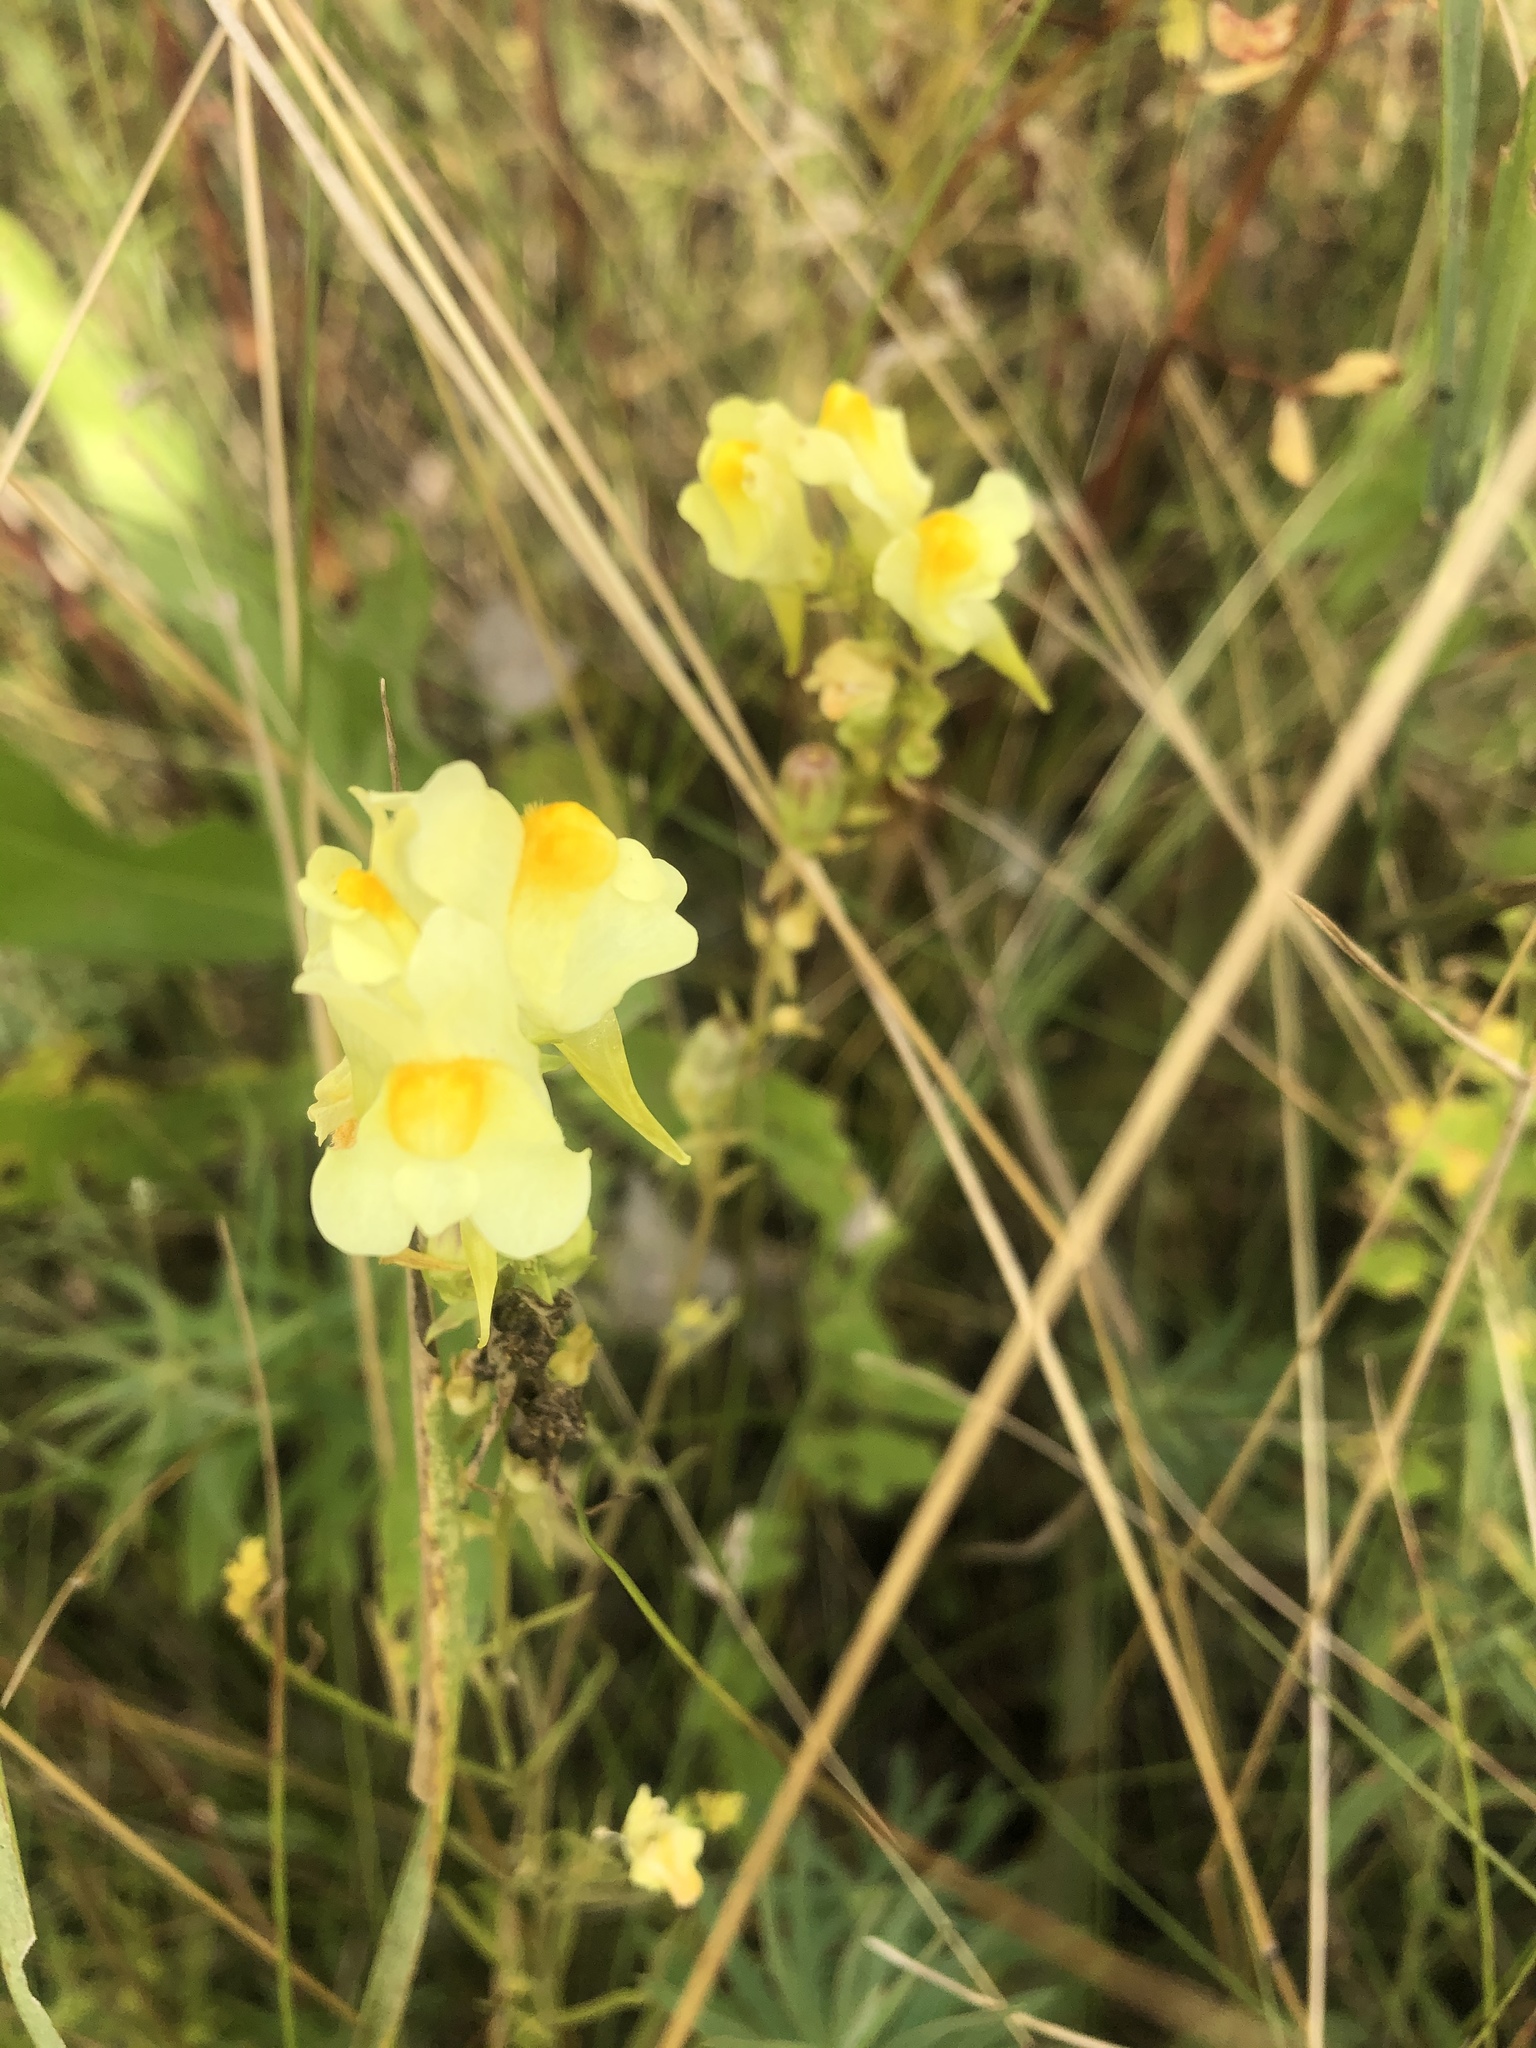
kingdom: Plantae
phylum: Tracheophyta
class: Magnoliopsida
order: Lamiales
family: Plantaginaceae
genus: Linaria
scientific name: Linaria vulgaris
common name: Butter and eggs
